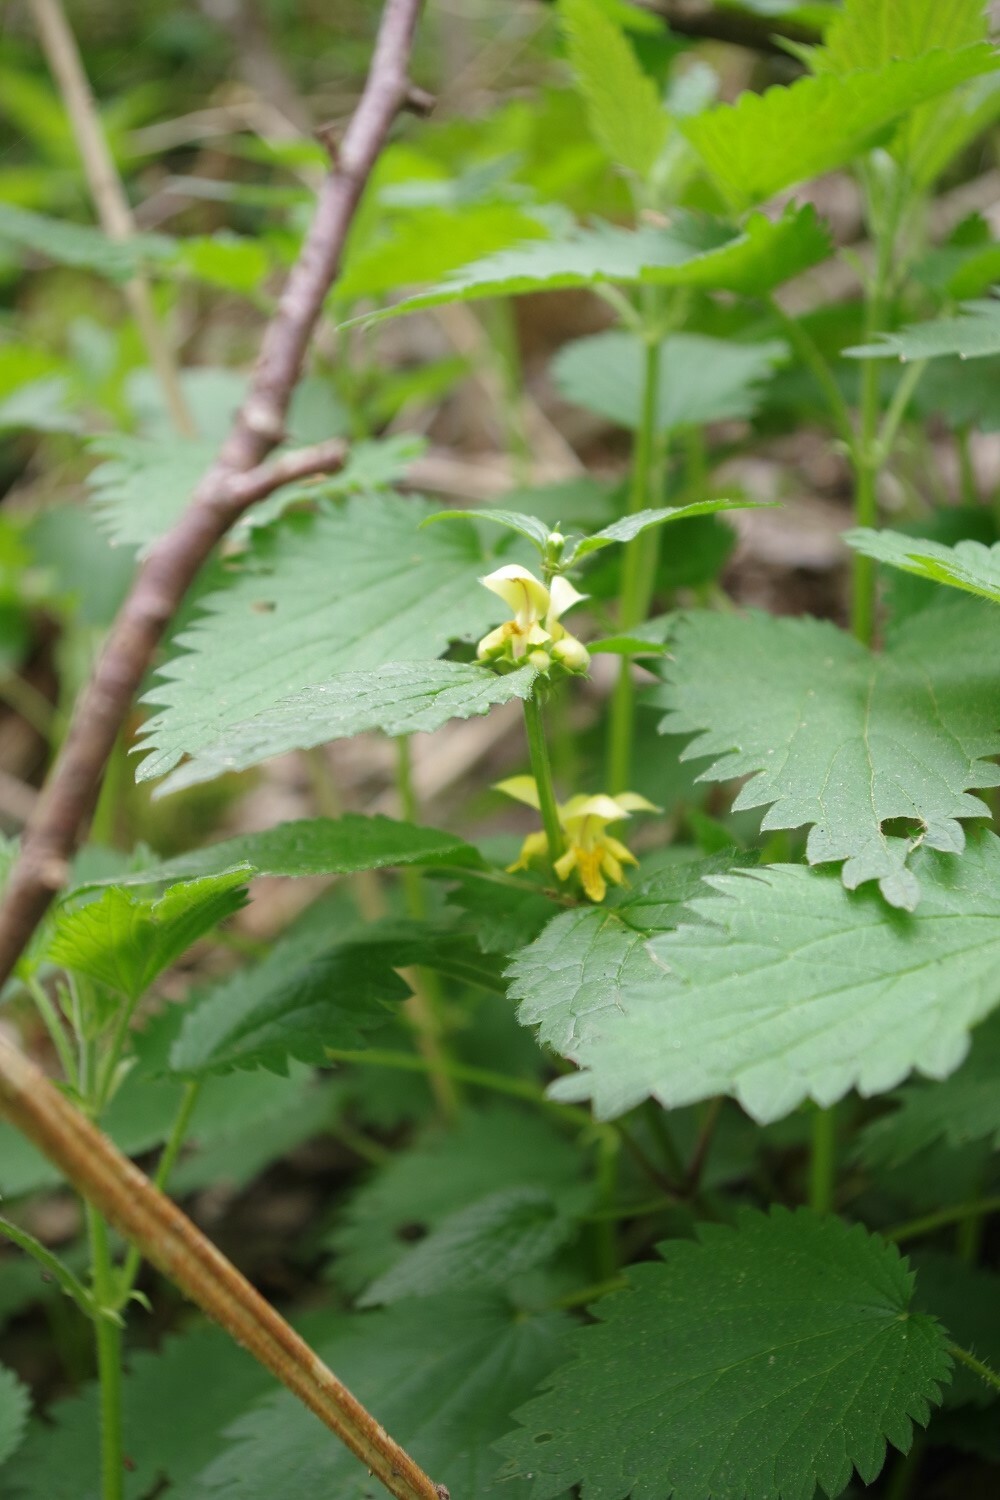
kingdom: Plantae
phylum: Tracheophyta
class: Magnoliopsida
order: Lamiales
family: Lamiaceae
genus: Lamium
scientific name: Lamium galeobdolon
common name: Yellow archangel
